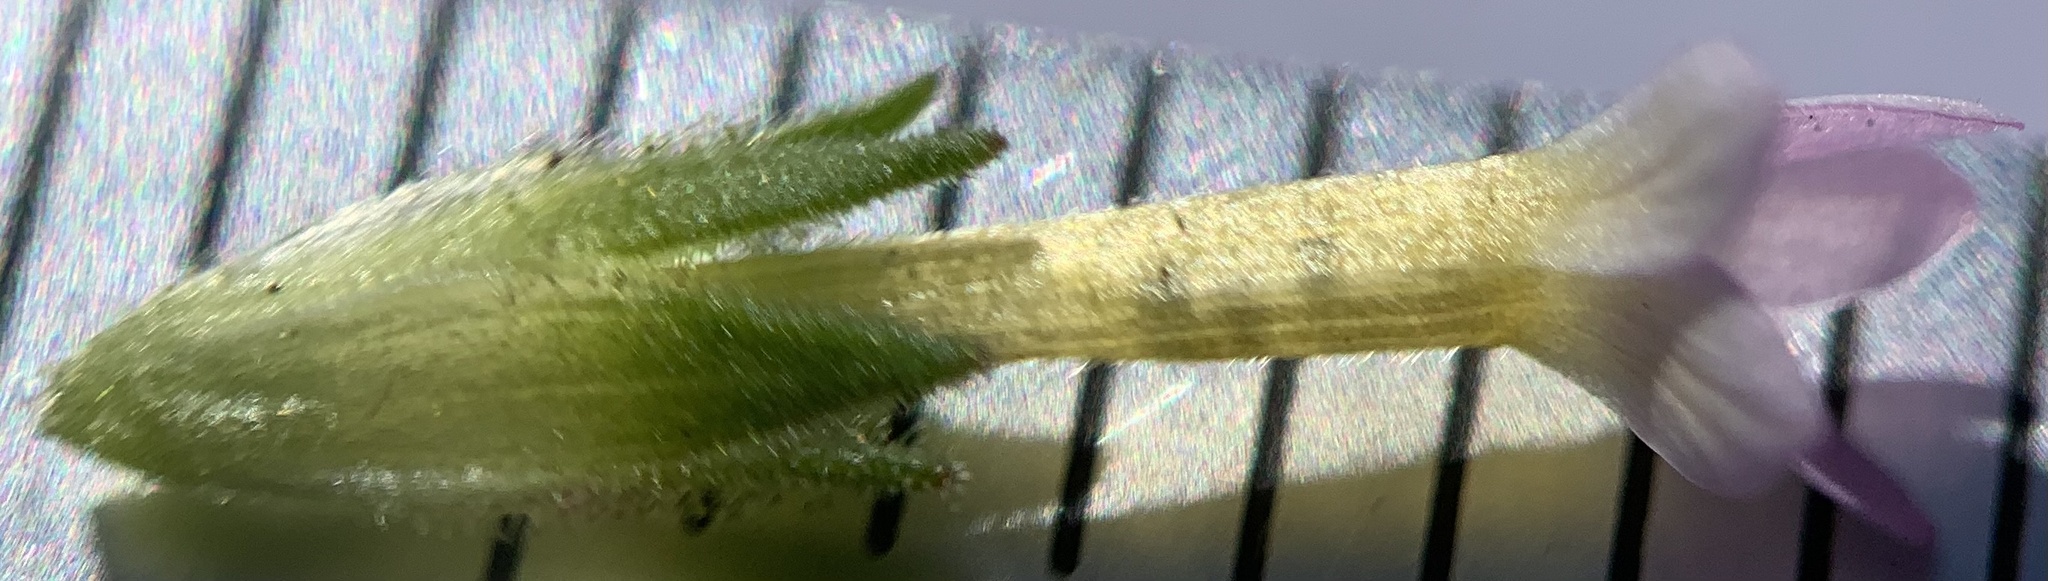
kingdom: Plantae
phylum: Tracheophyta
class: Magnoliopsida
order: Ericales
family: Polemoniaceae
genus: Collomia
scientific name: Collomia linearis
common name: Tiny trumpet
